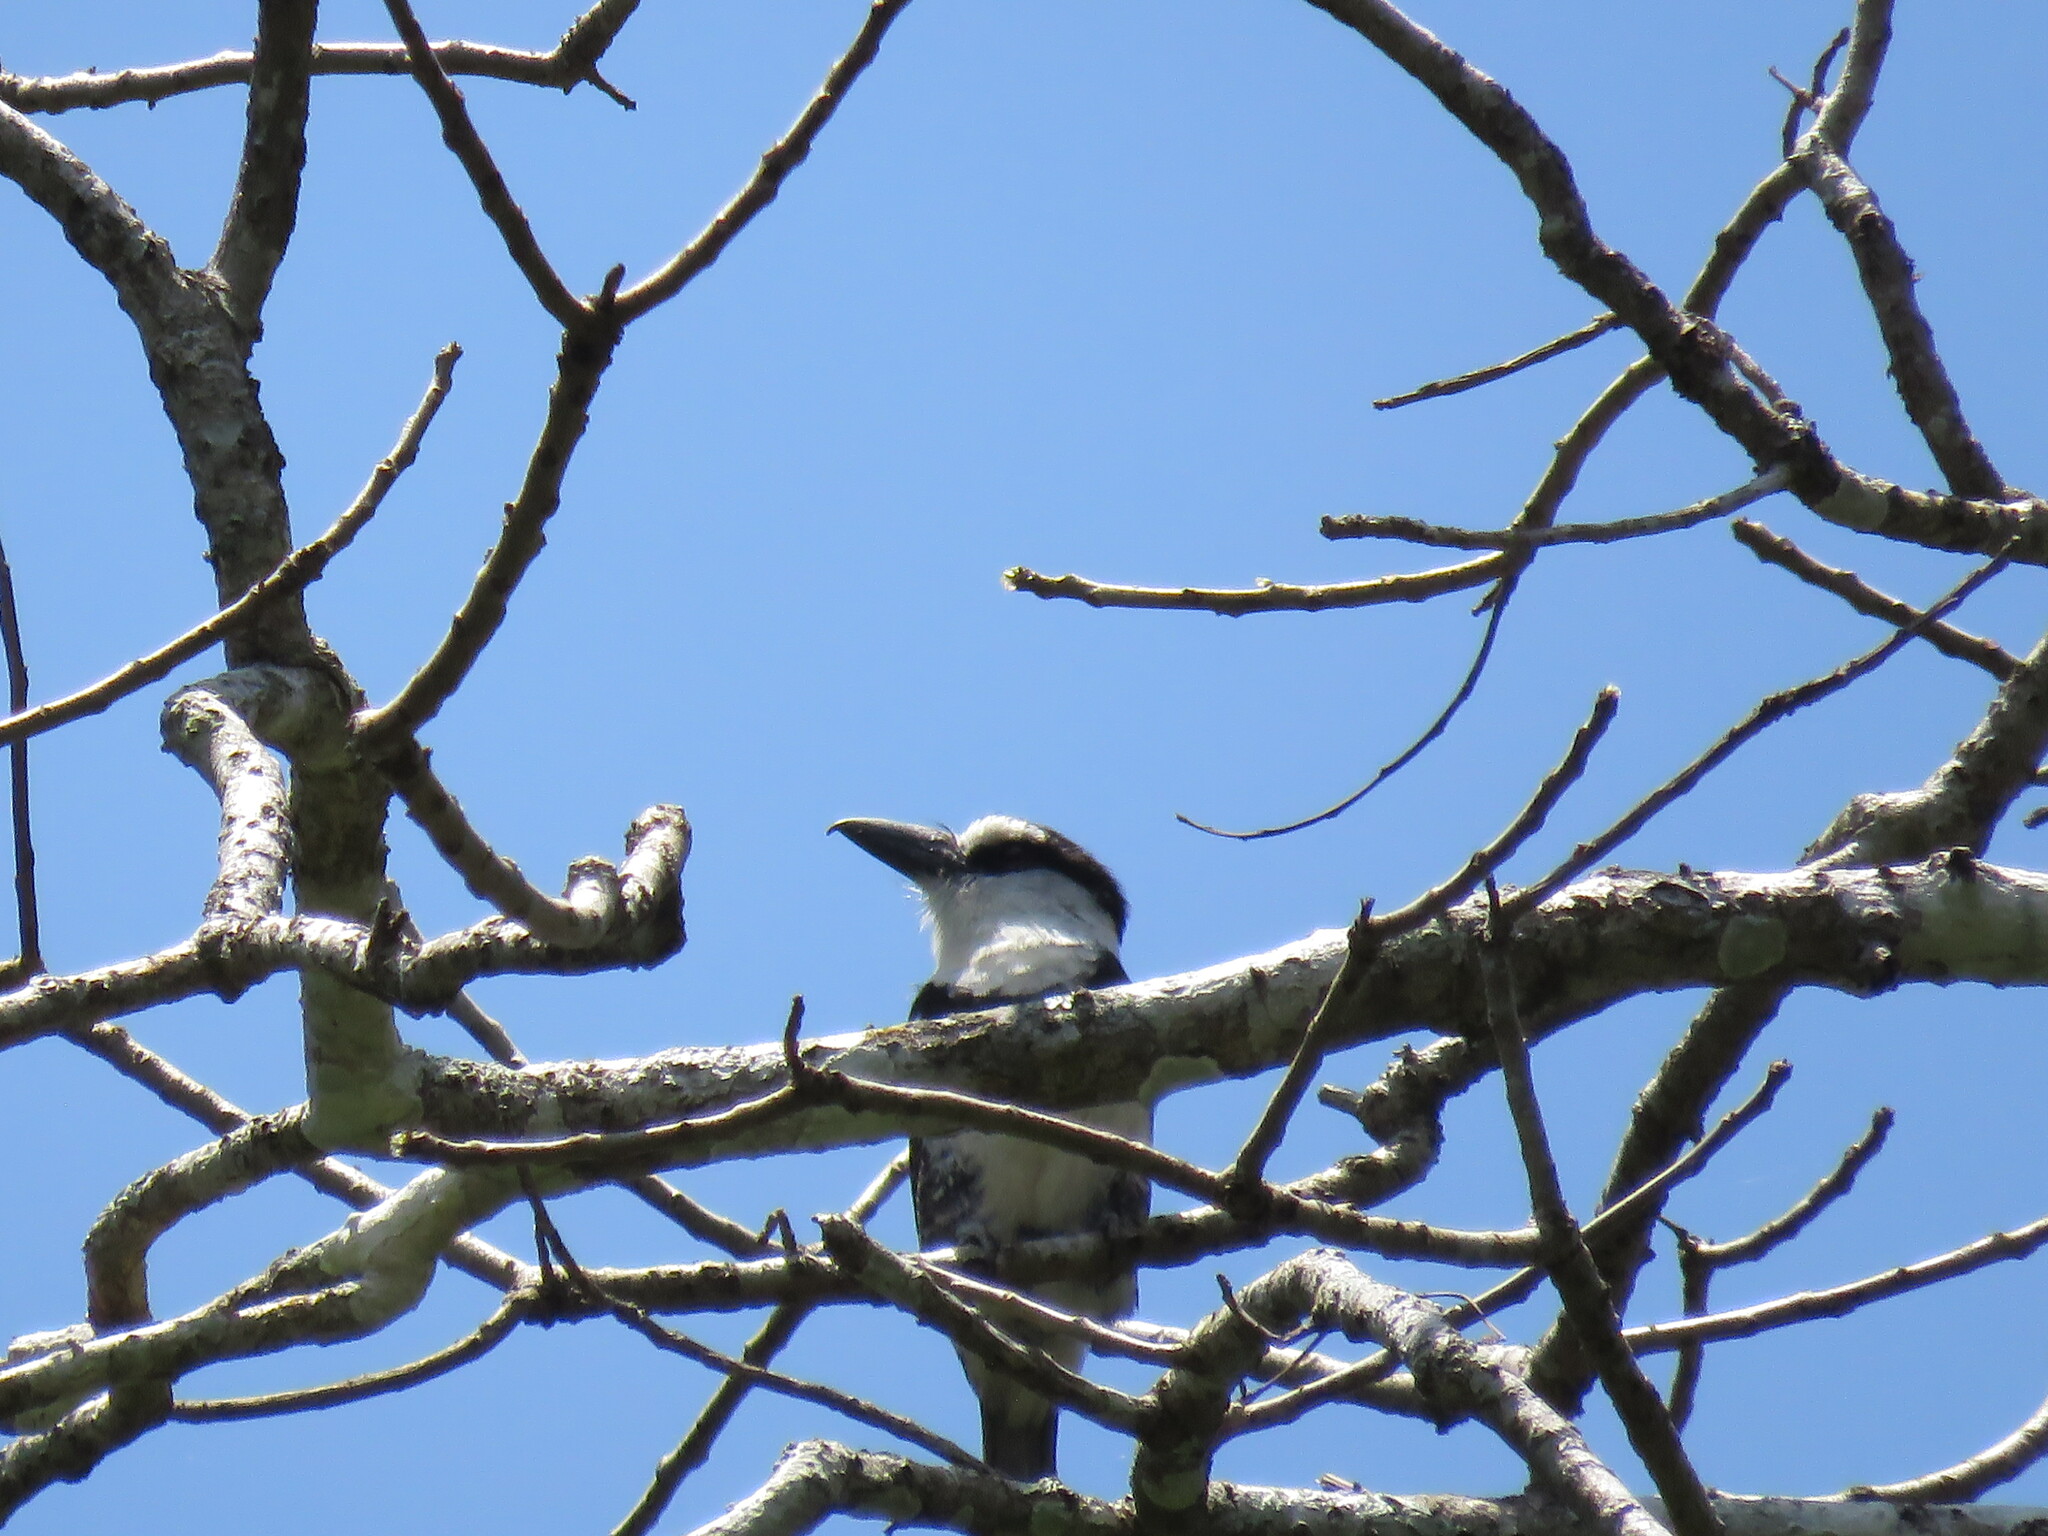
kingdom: Animalia
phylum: Chordata
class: Aves
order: Piciformes
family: Bucconidae
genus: Notharchus
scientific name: Notharchus hyperrhynchus
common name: White-necked puffbird
